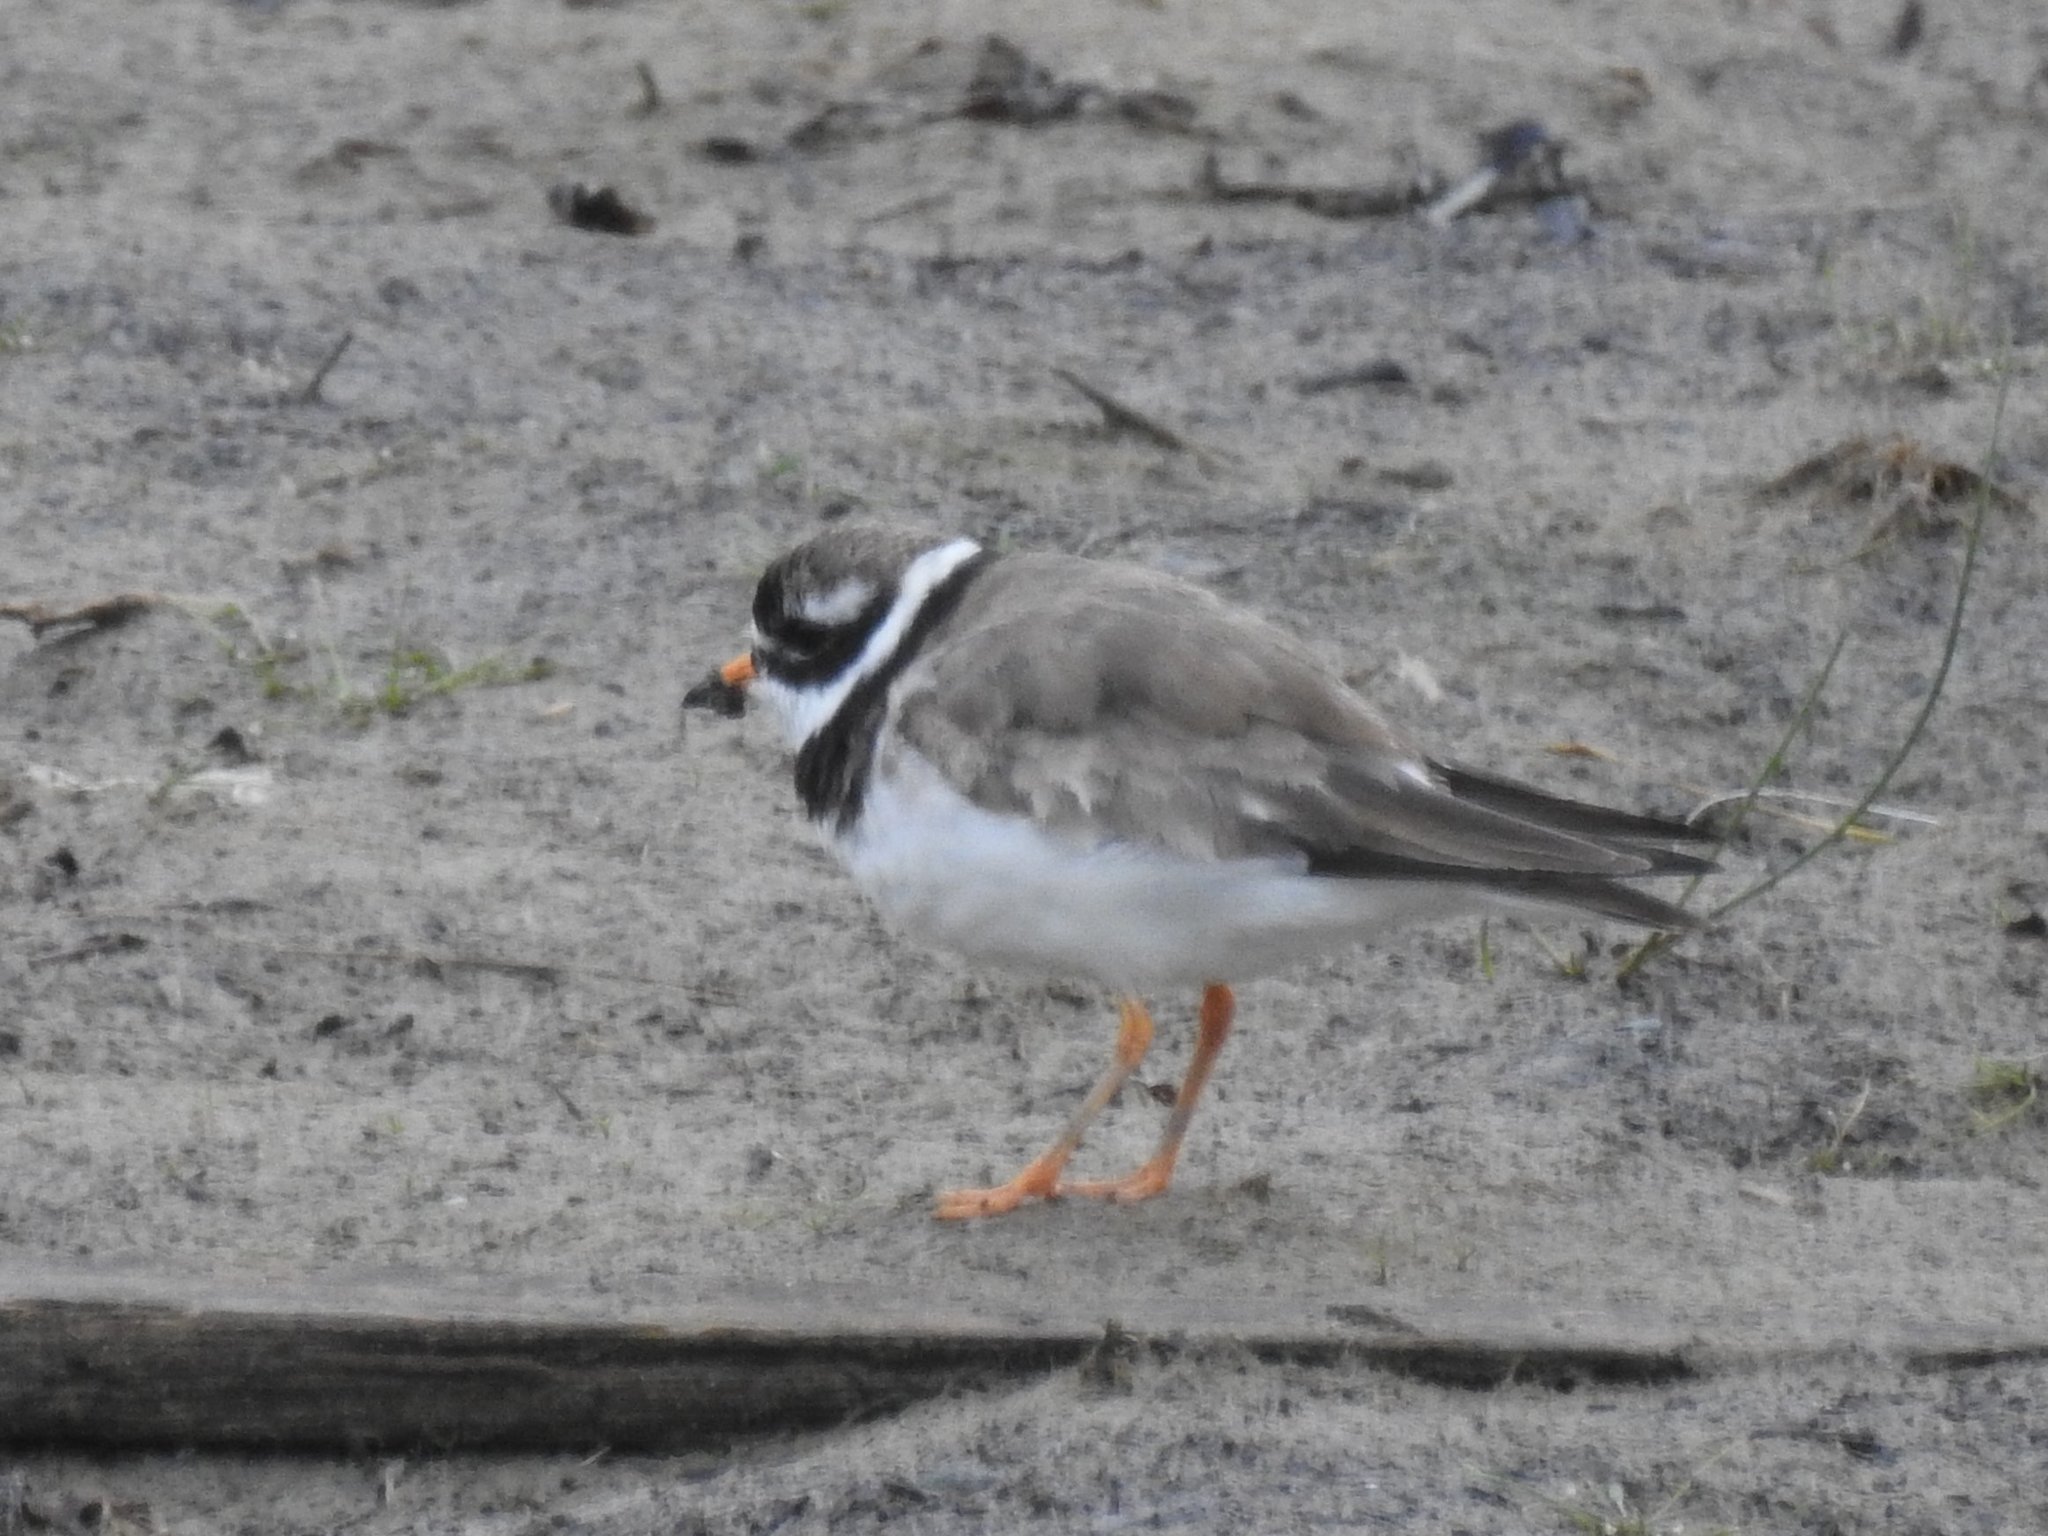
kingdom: Animalia
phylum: Chordata
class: Aves
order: Charadriiformes
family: Charadriidae
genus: Charadrius
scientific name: Charadrius hiaticula
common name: Common ringed plover
